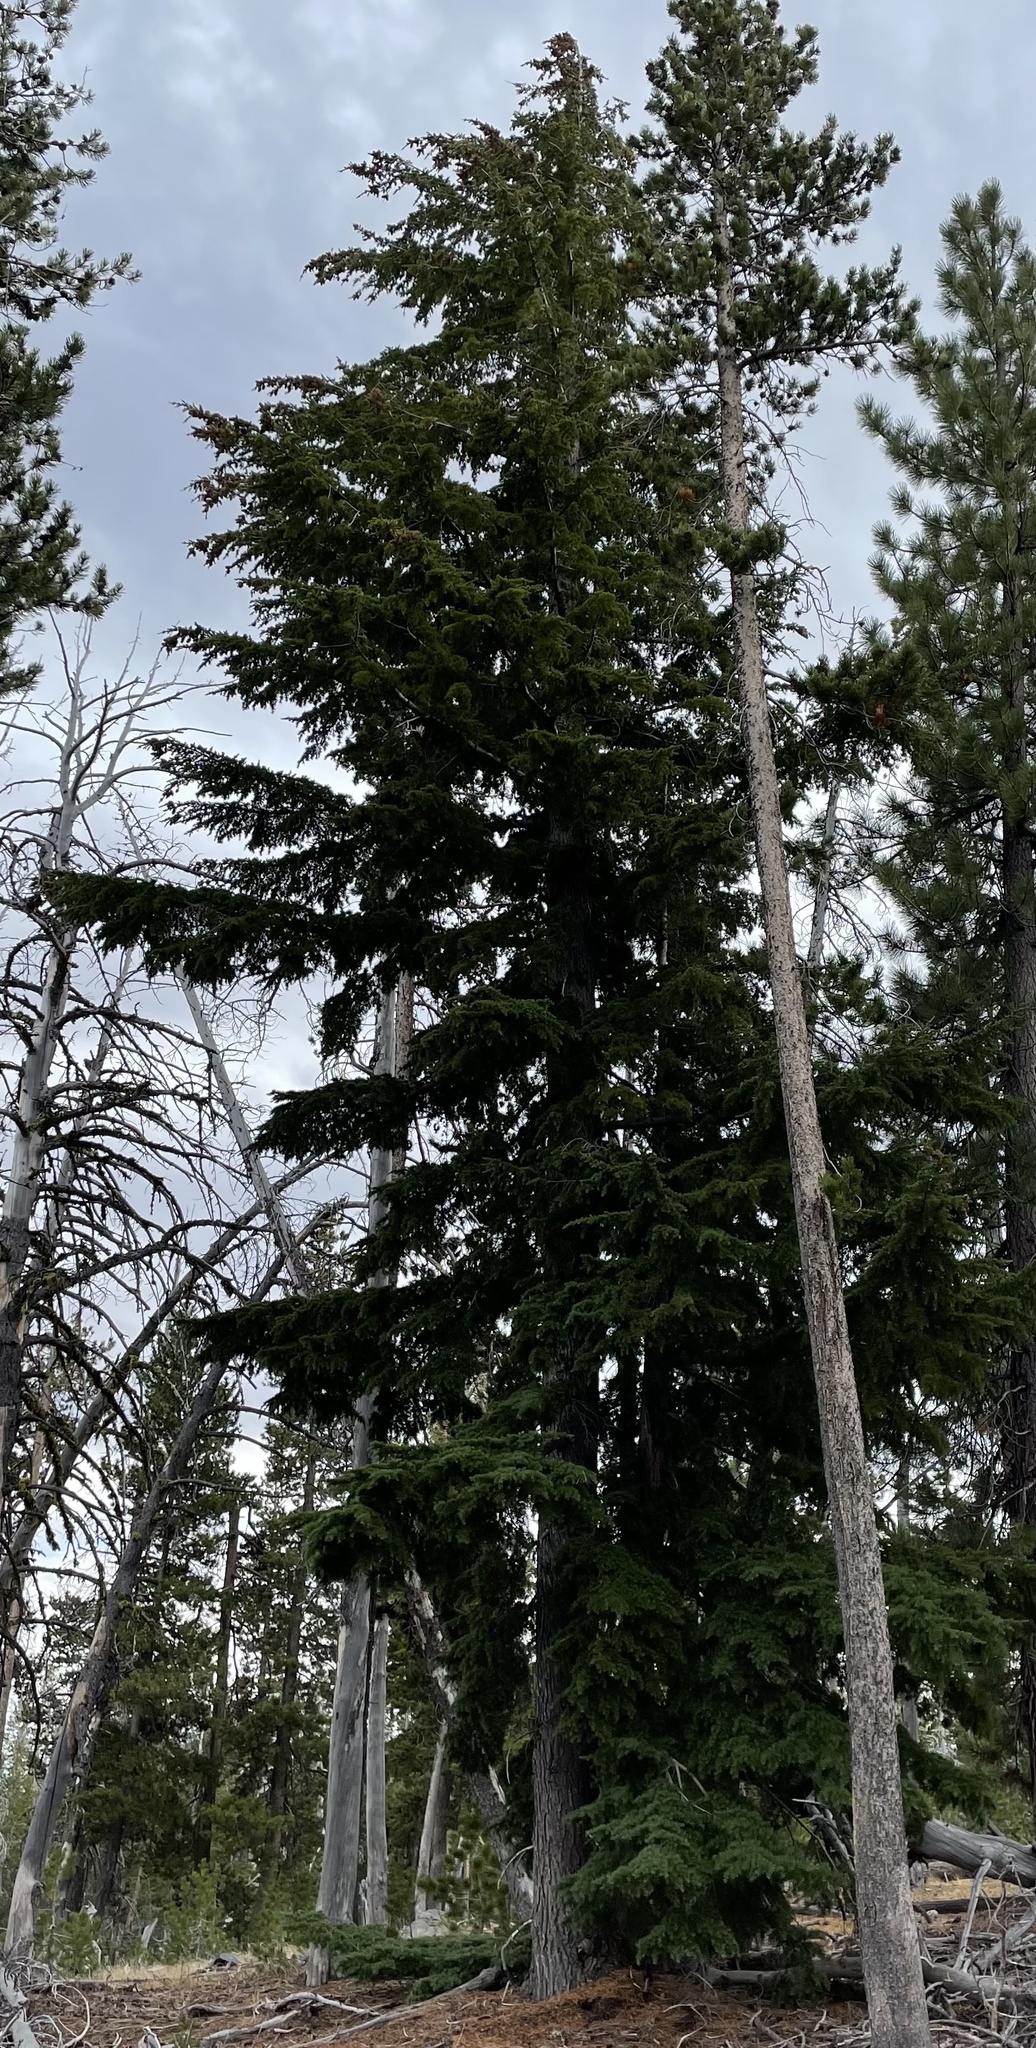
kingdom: Plantae
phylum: Tracheophyta
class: Pinopsida
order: Pinales
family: Pinaceae
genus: Tsuga
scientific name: Tsuga mertensiana
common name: Mountain hemlock
